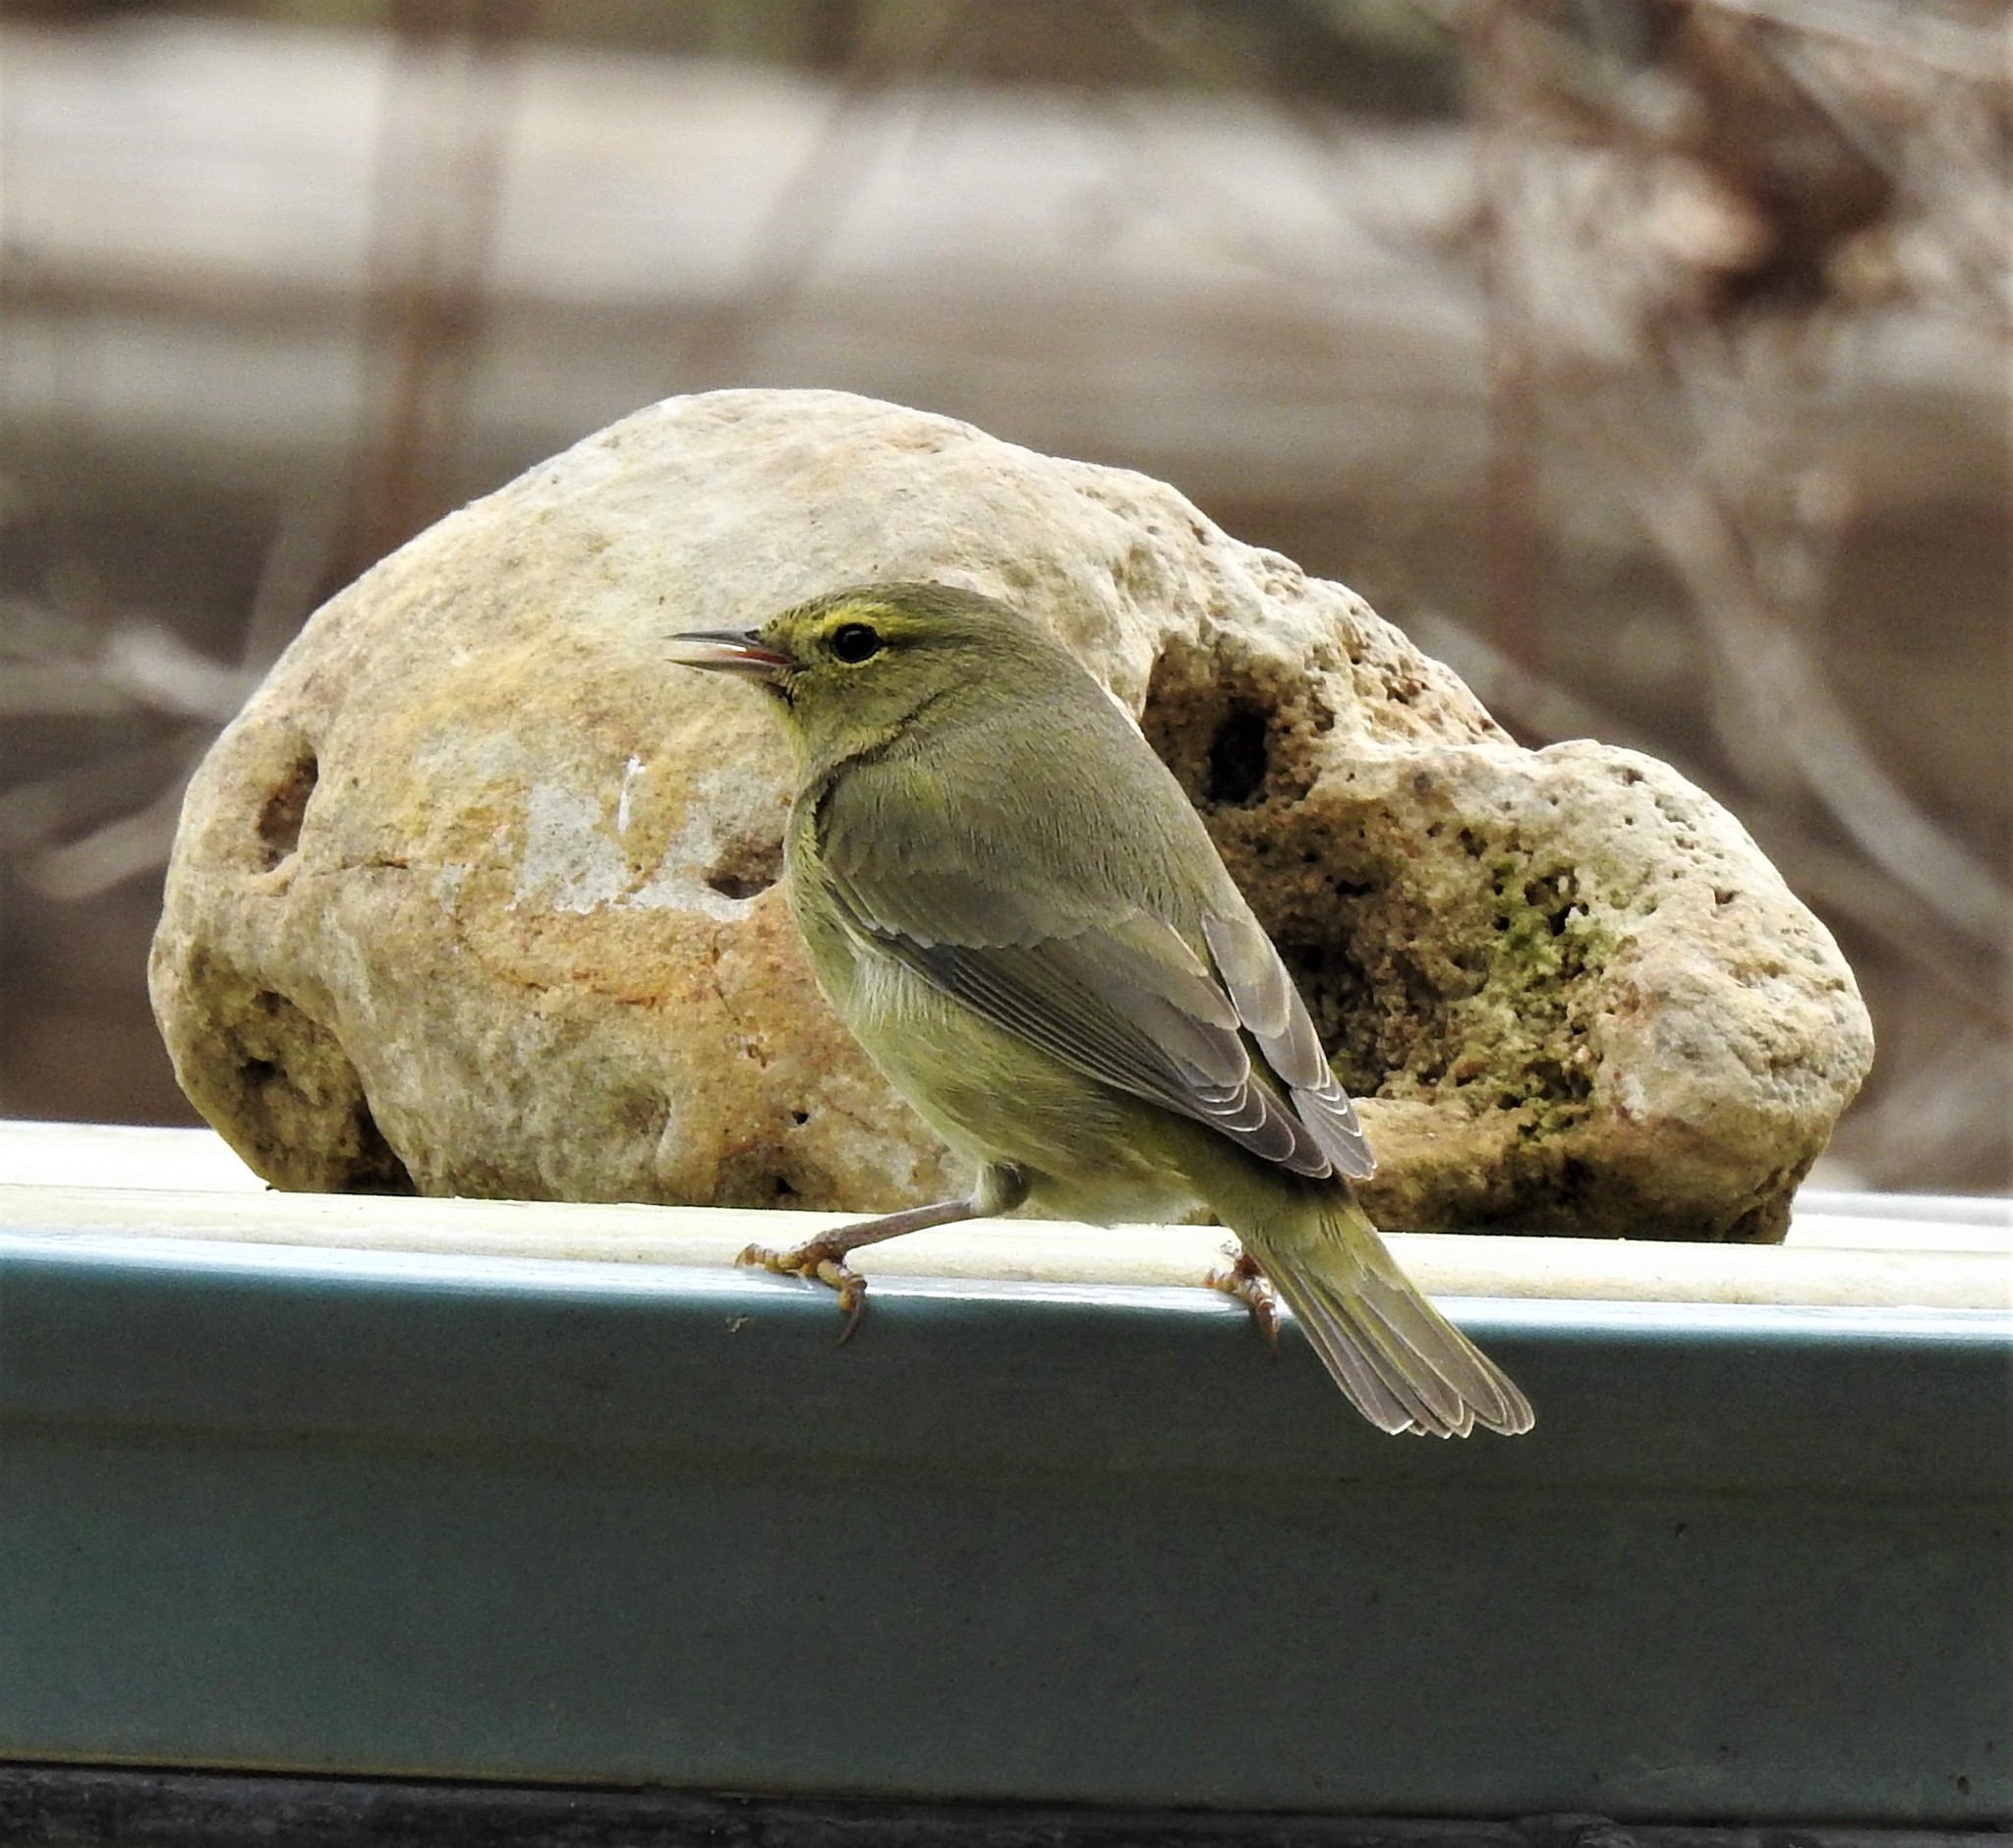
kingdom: Animalia
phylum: Chordata
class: Aves
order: Passeriformes
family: Parulidae
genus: Leiothlypis
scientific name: Leiothlypis celata
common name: Orange-crowned warbler
